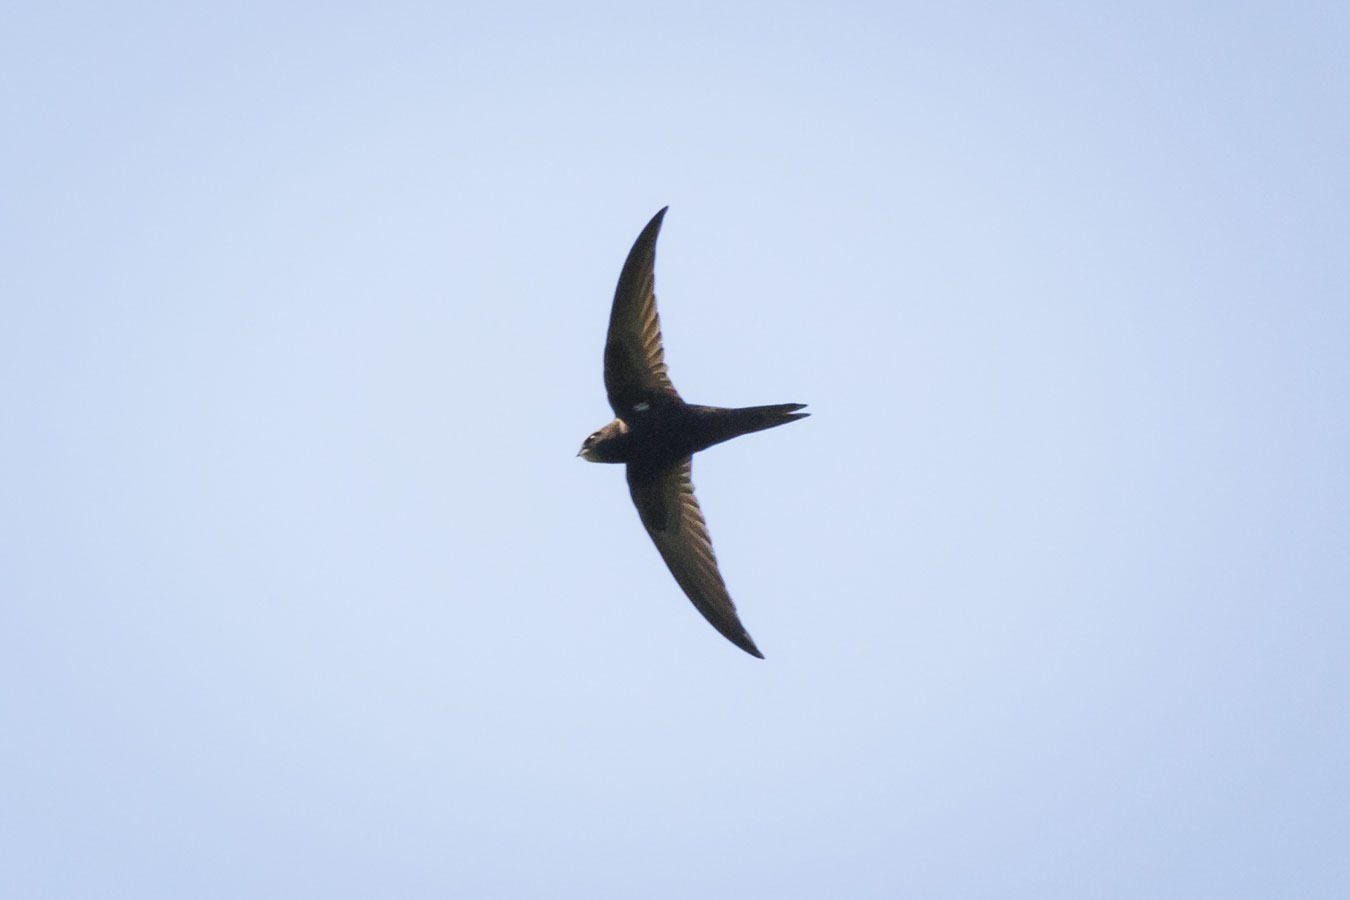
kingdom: Animalia
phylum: Chordata
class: Aves
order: Apodiformes
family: Apodidae
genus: Apus
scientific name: Apus apus
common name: Common swift
